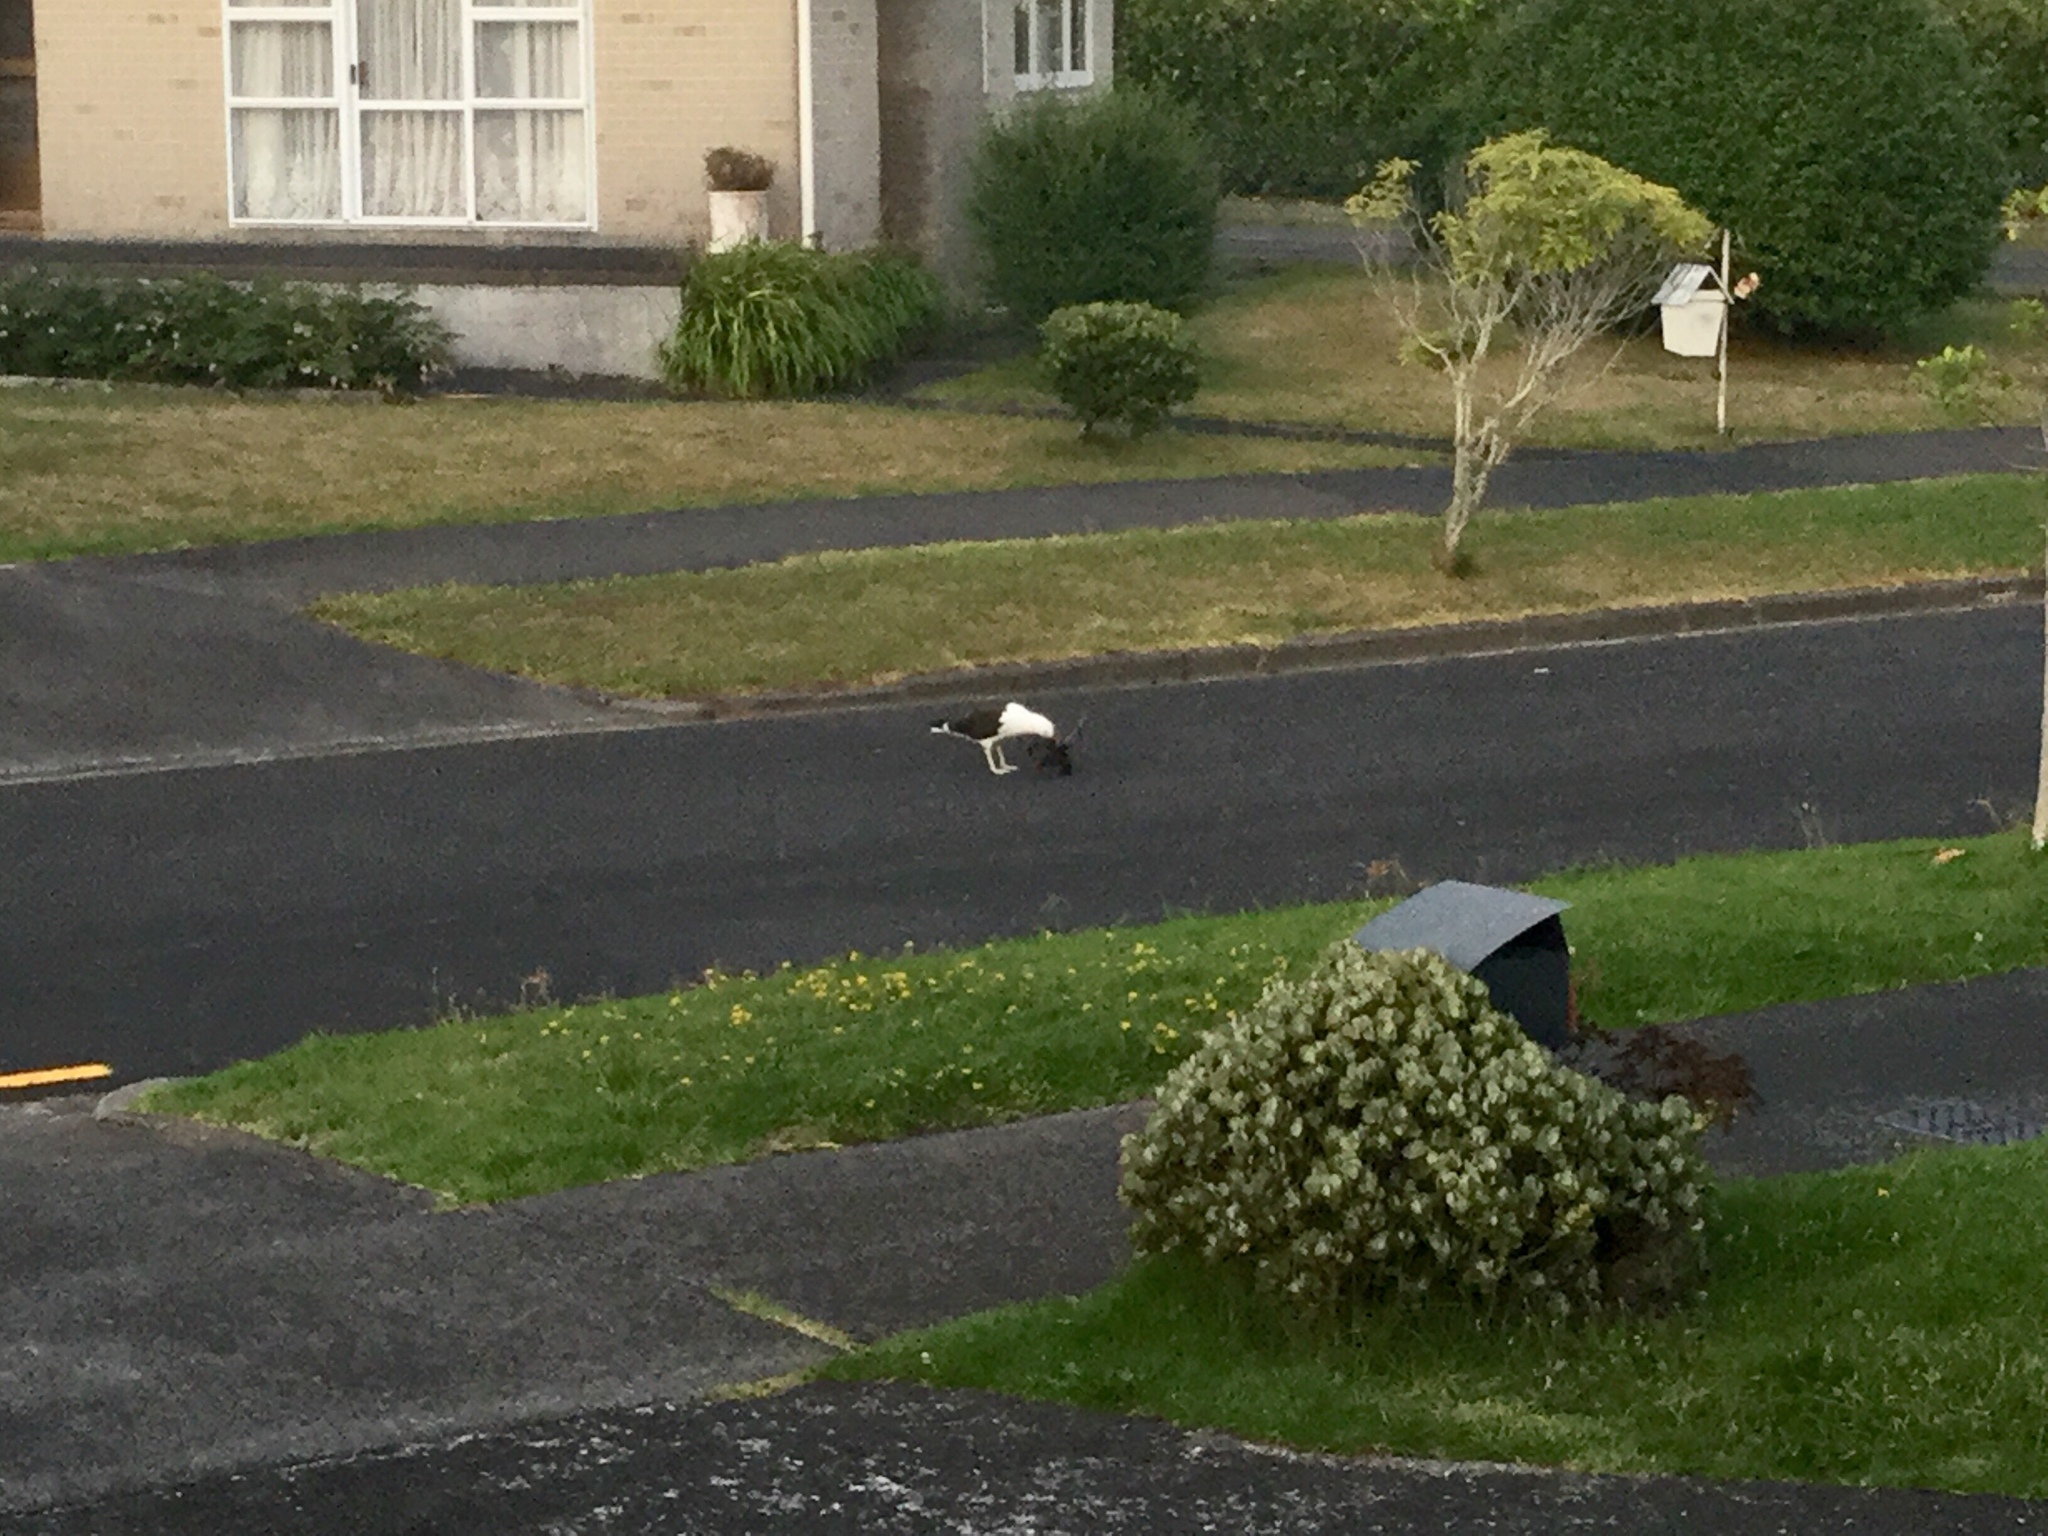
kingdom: Animalia
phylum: Chordata
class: Aves
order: Charadriiformes
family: Laridae
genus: Larus
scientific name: Larus dominicanus
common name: Kelp gull
